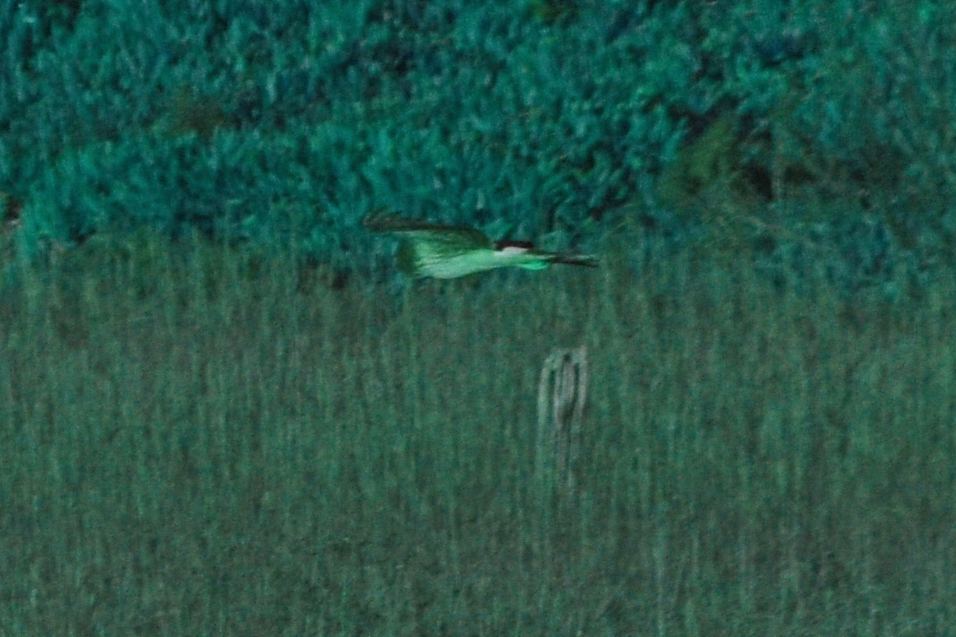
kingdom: Animalia
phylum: Chordata
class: Aves
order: Accipitriformes
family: Accipitridae
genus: Circus
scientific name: Circus cyaneus
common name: Hen harrier
